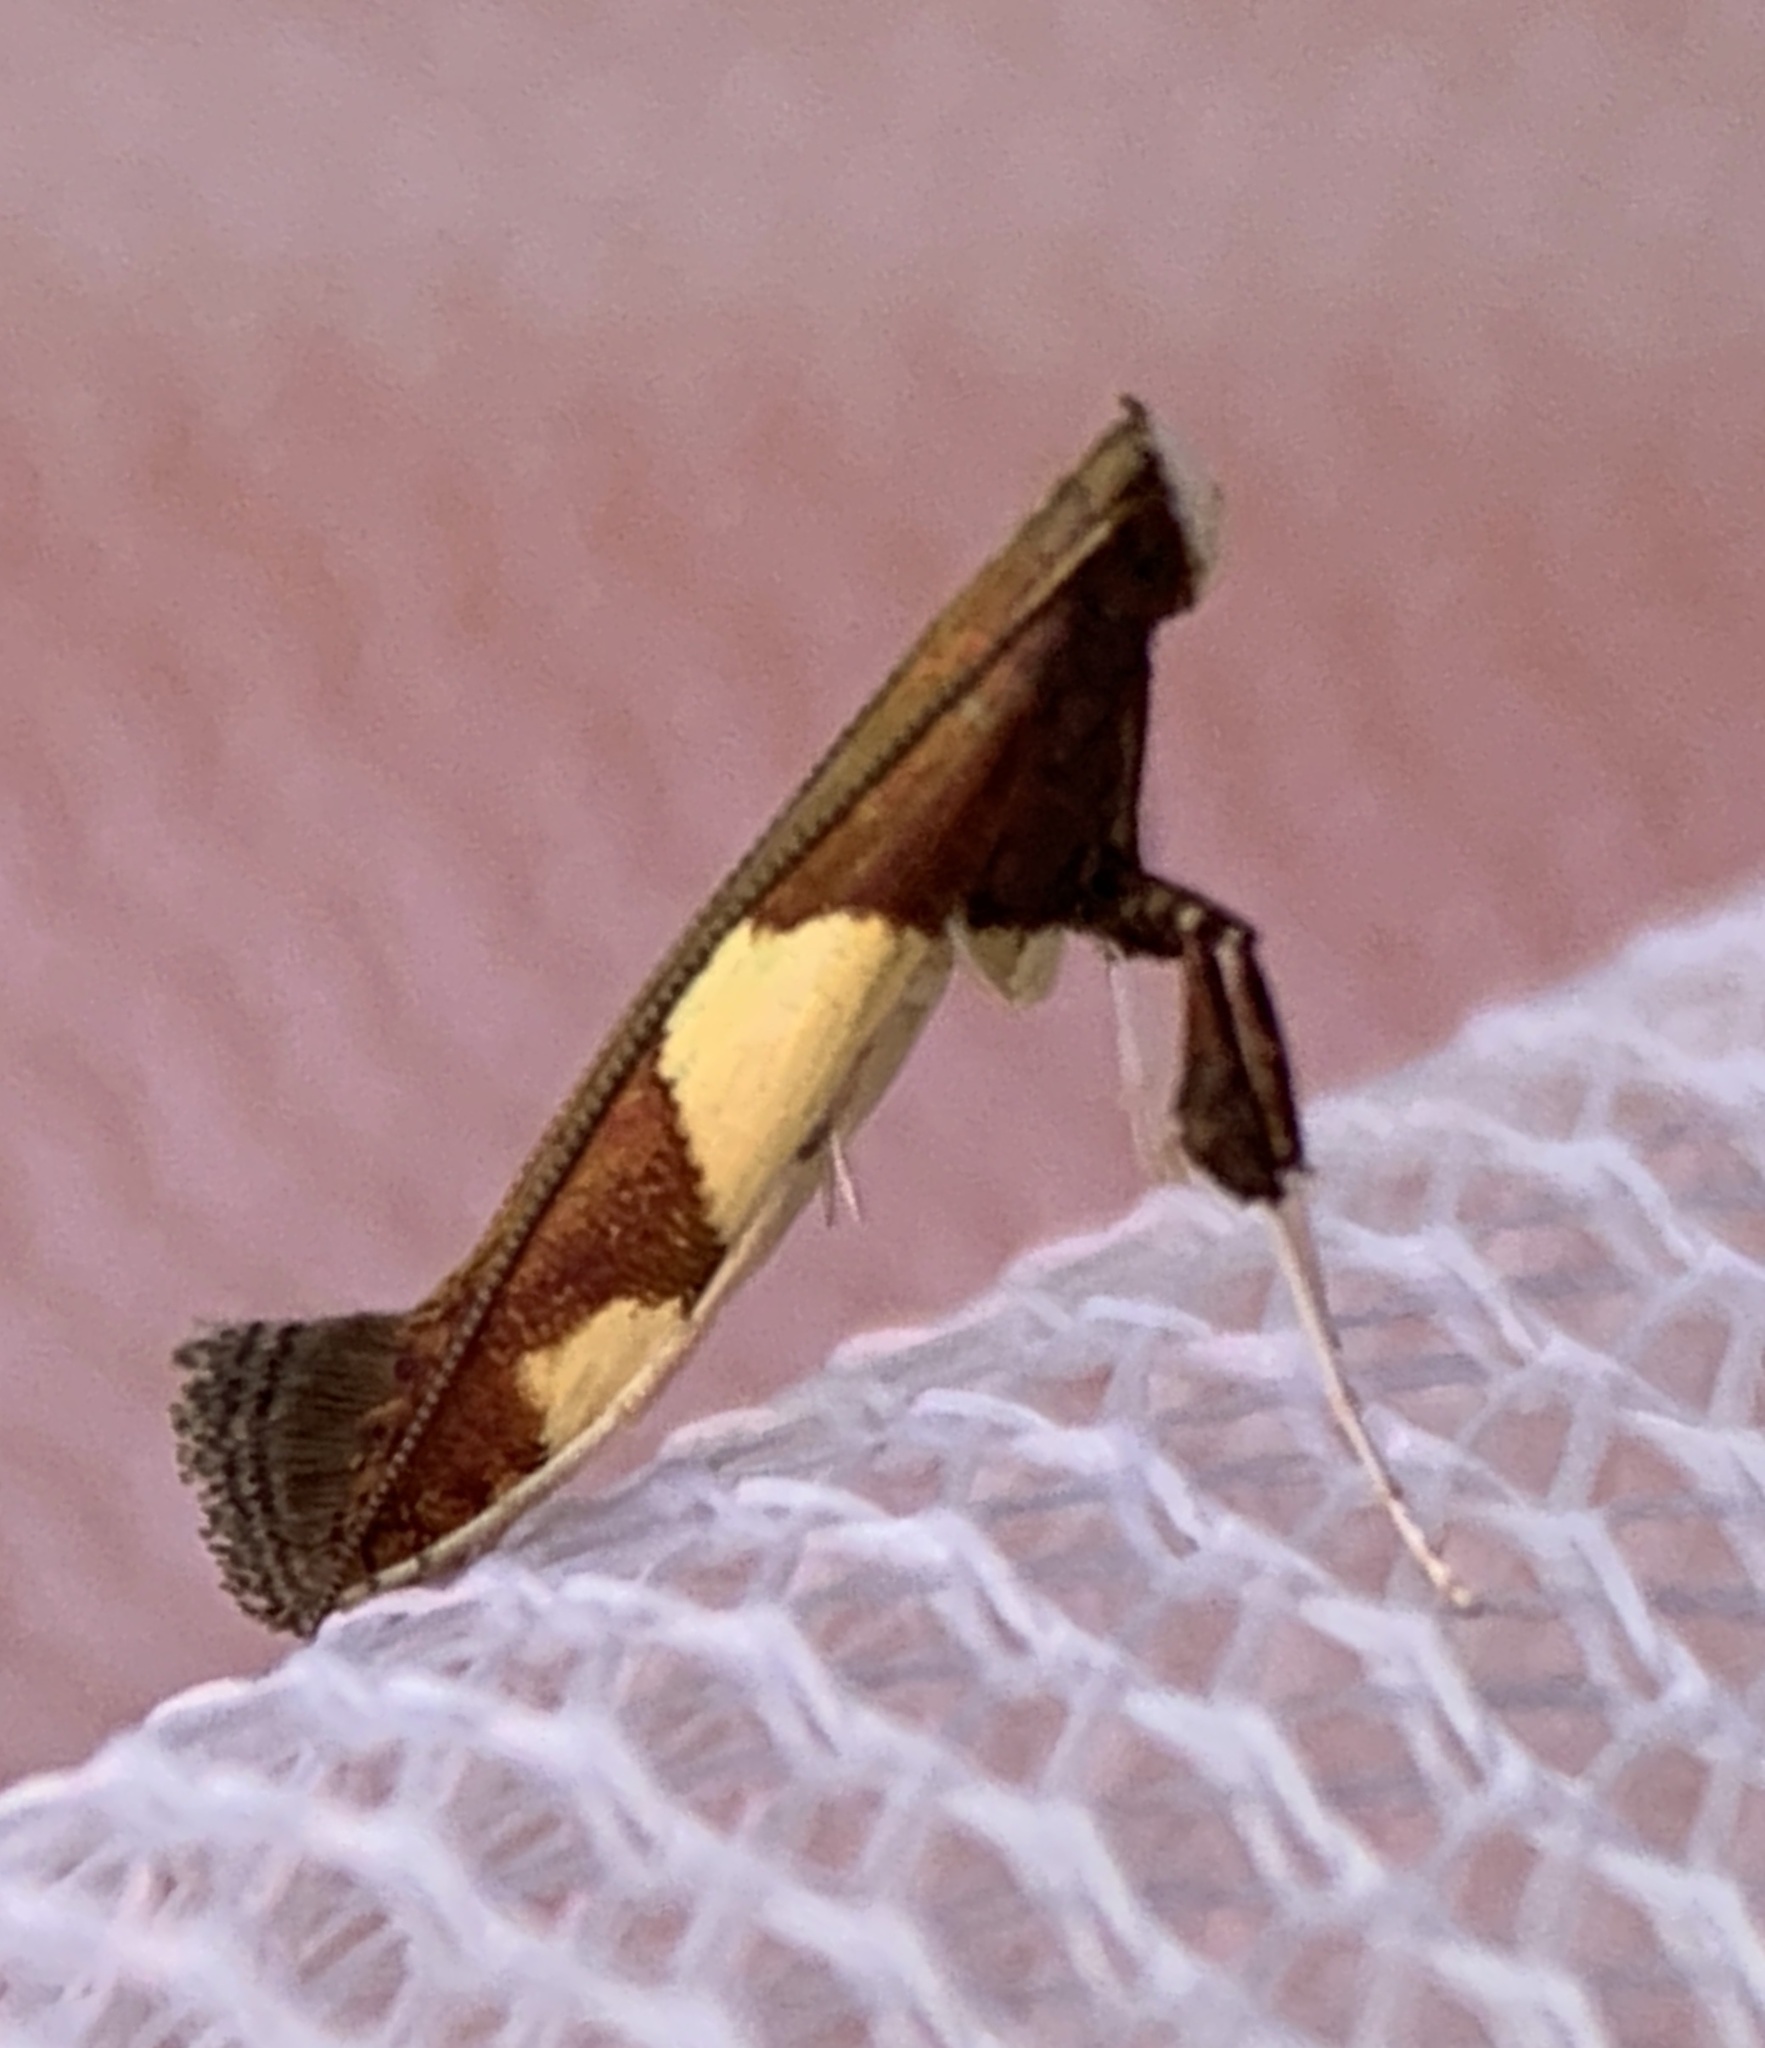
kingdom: Animalia
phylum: Arthropoda
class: Insecta
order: Lepidoptera
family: Gracillariidae
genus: Caloptilia
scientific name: Caloptilia bimaculatella
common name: Maple caloptilia moth
